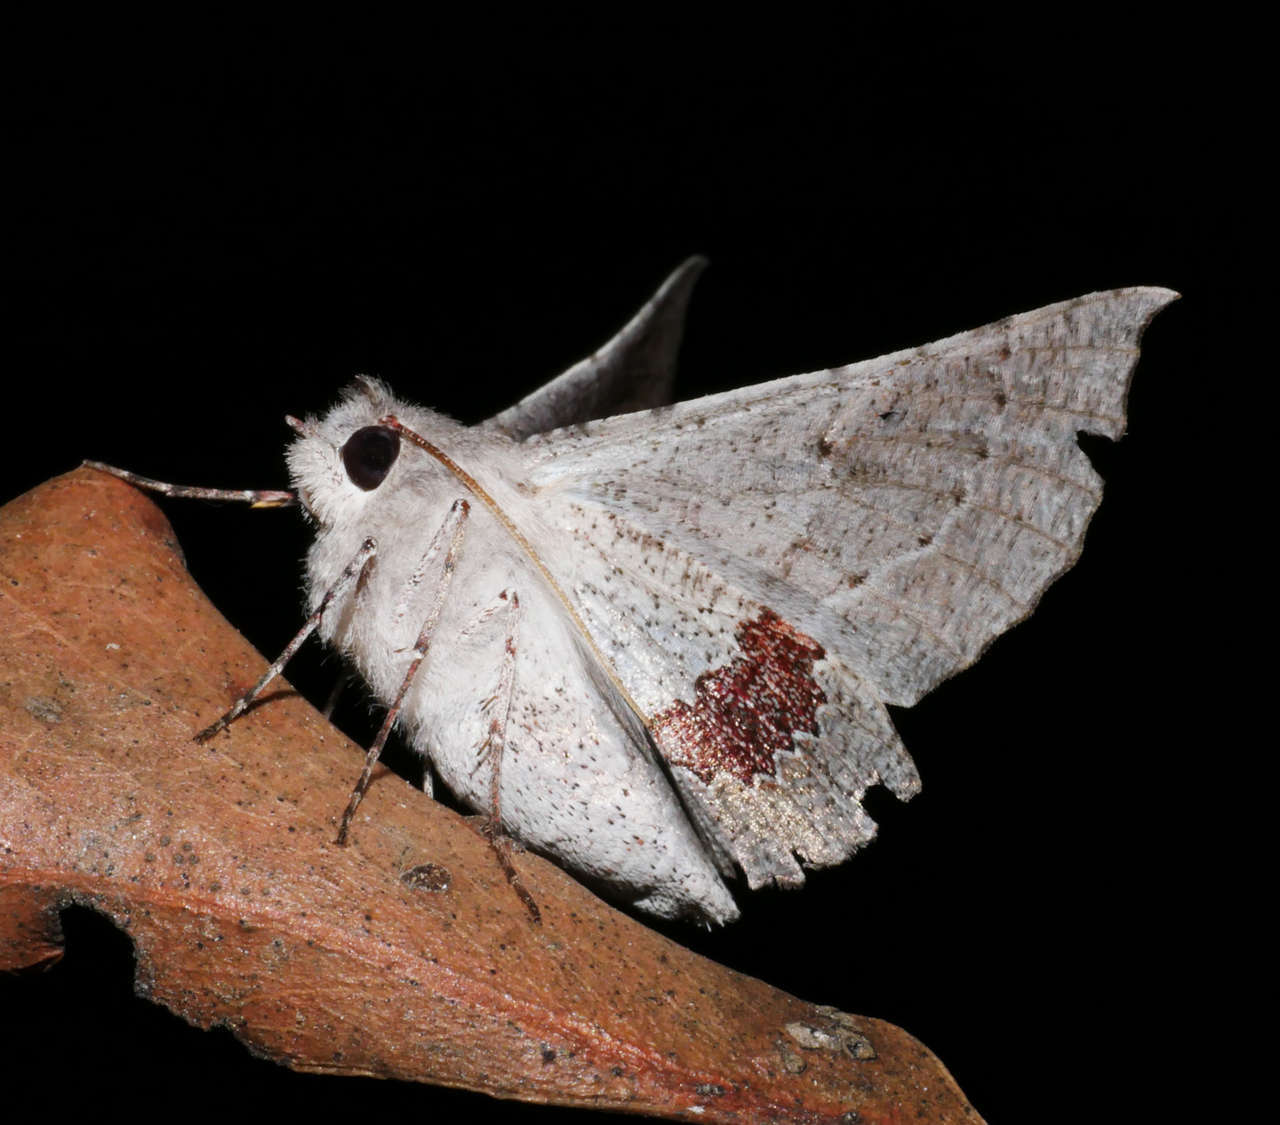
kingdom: Animalia
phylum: Arthropoda
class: Insecta
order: Lepidoptera
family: Geometridae
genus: Oenochroma
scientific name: Oenochroma privata
